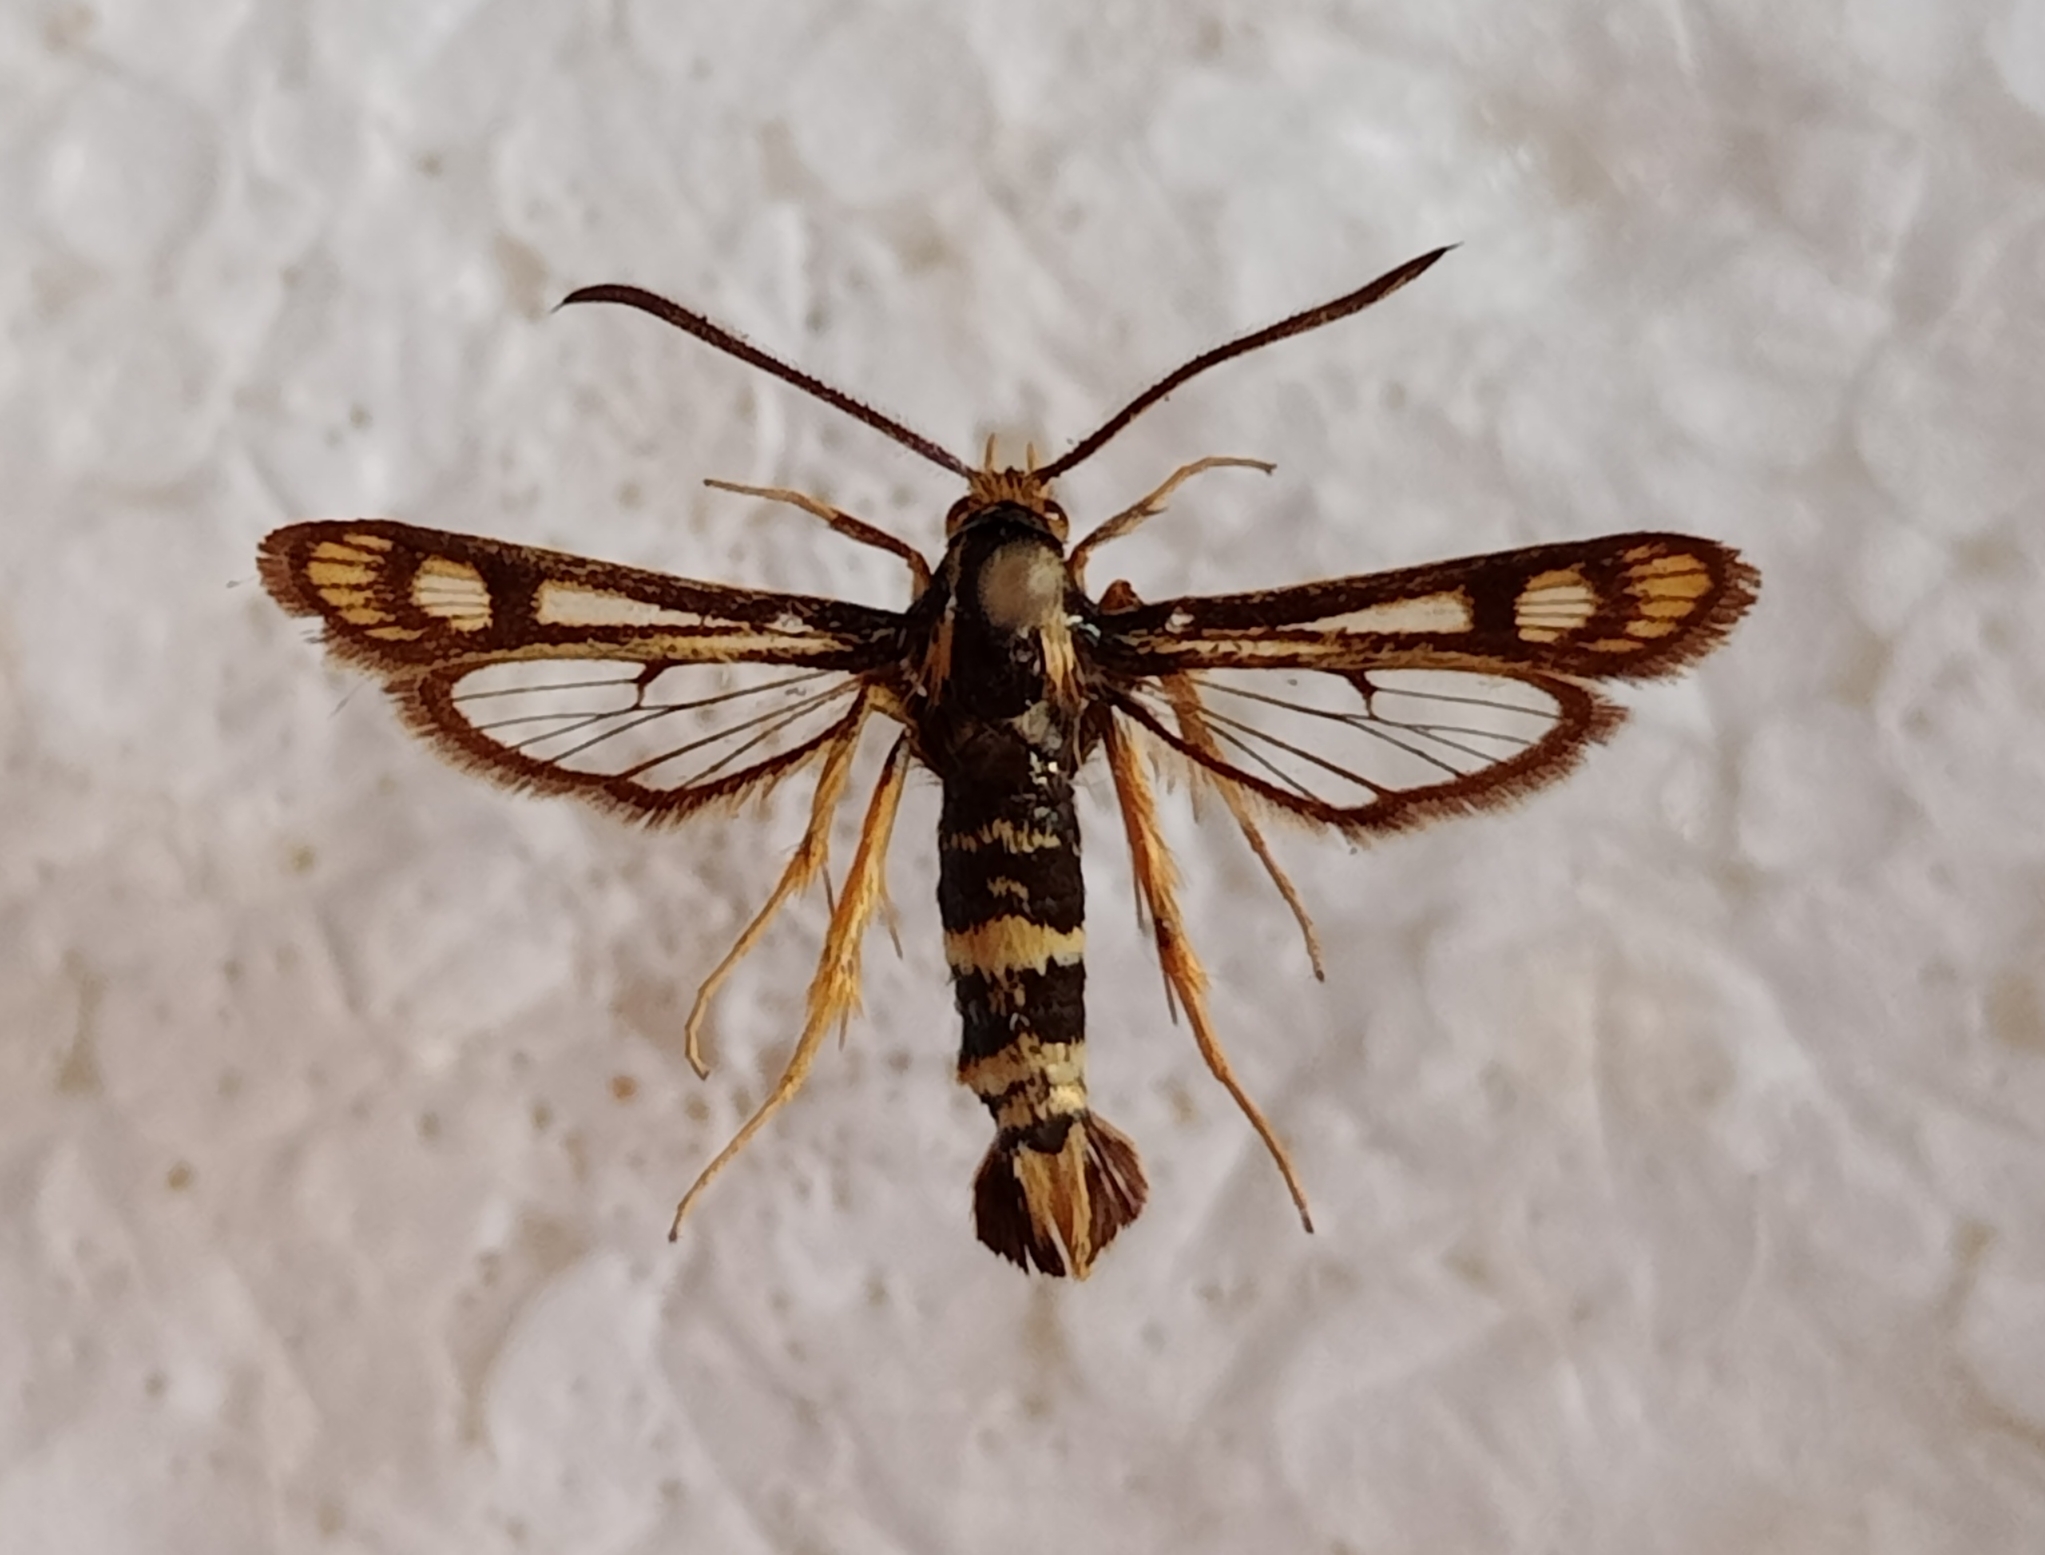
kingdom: Animalia
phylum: Arthropoda
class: Insecta
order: Lepidoptera
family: Sesiidae
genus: Chamaesphecia
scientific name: Chamaesphecia turbida
